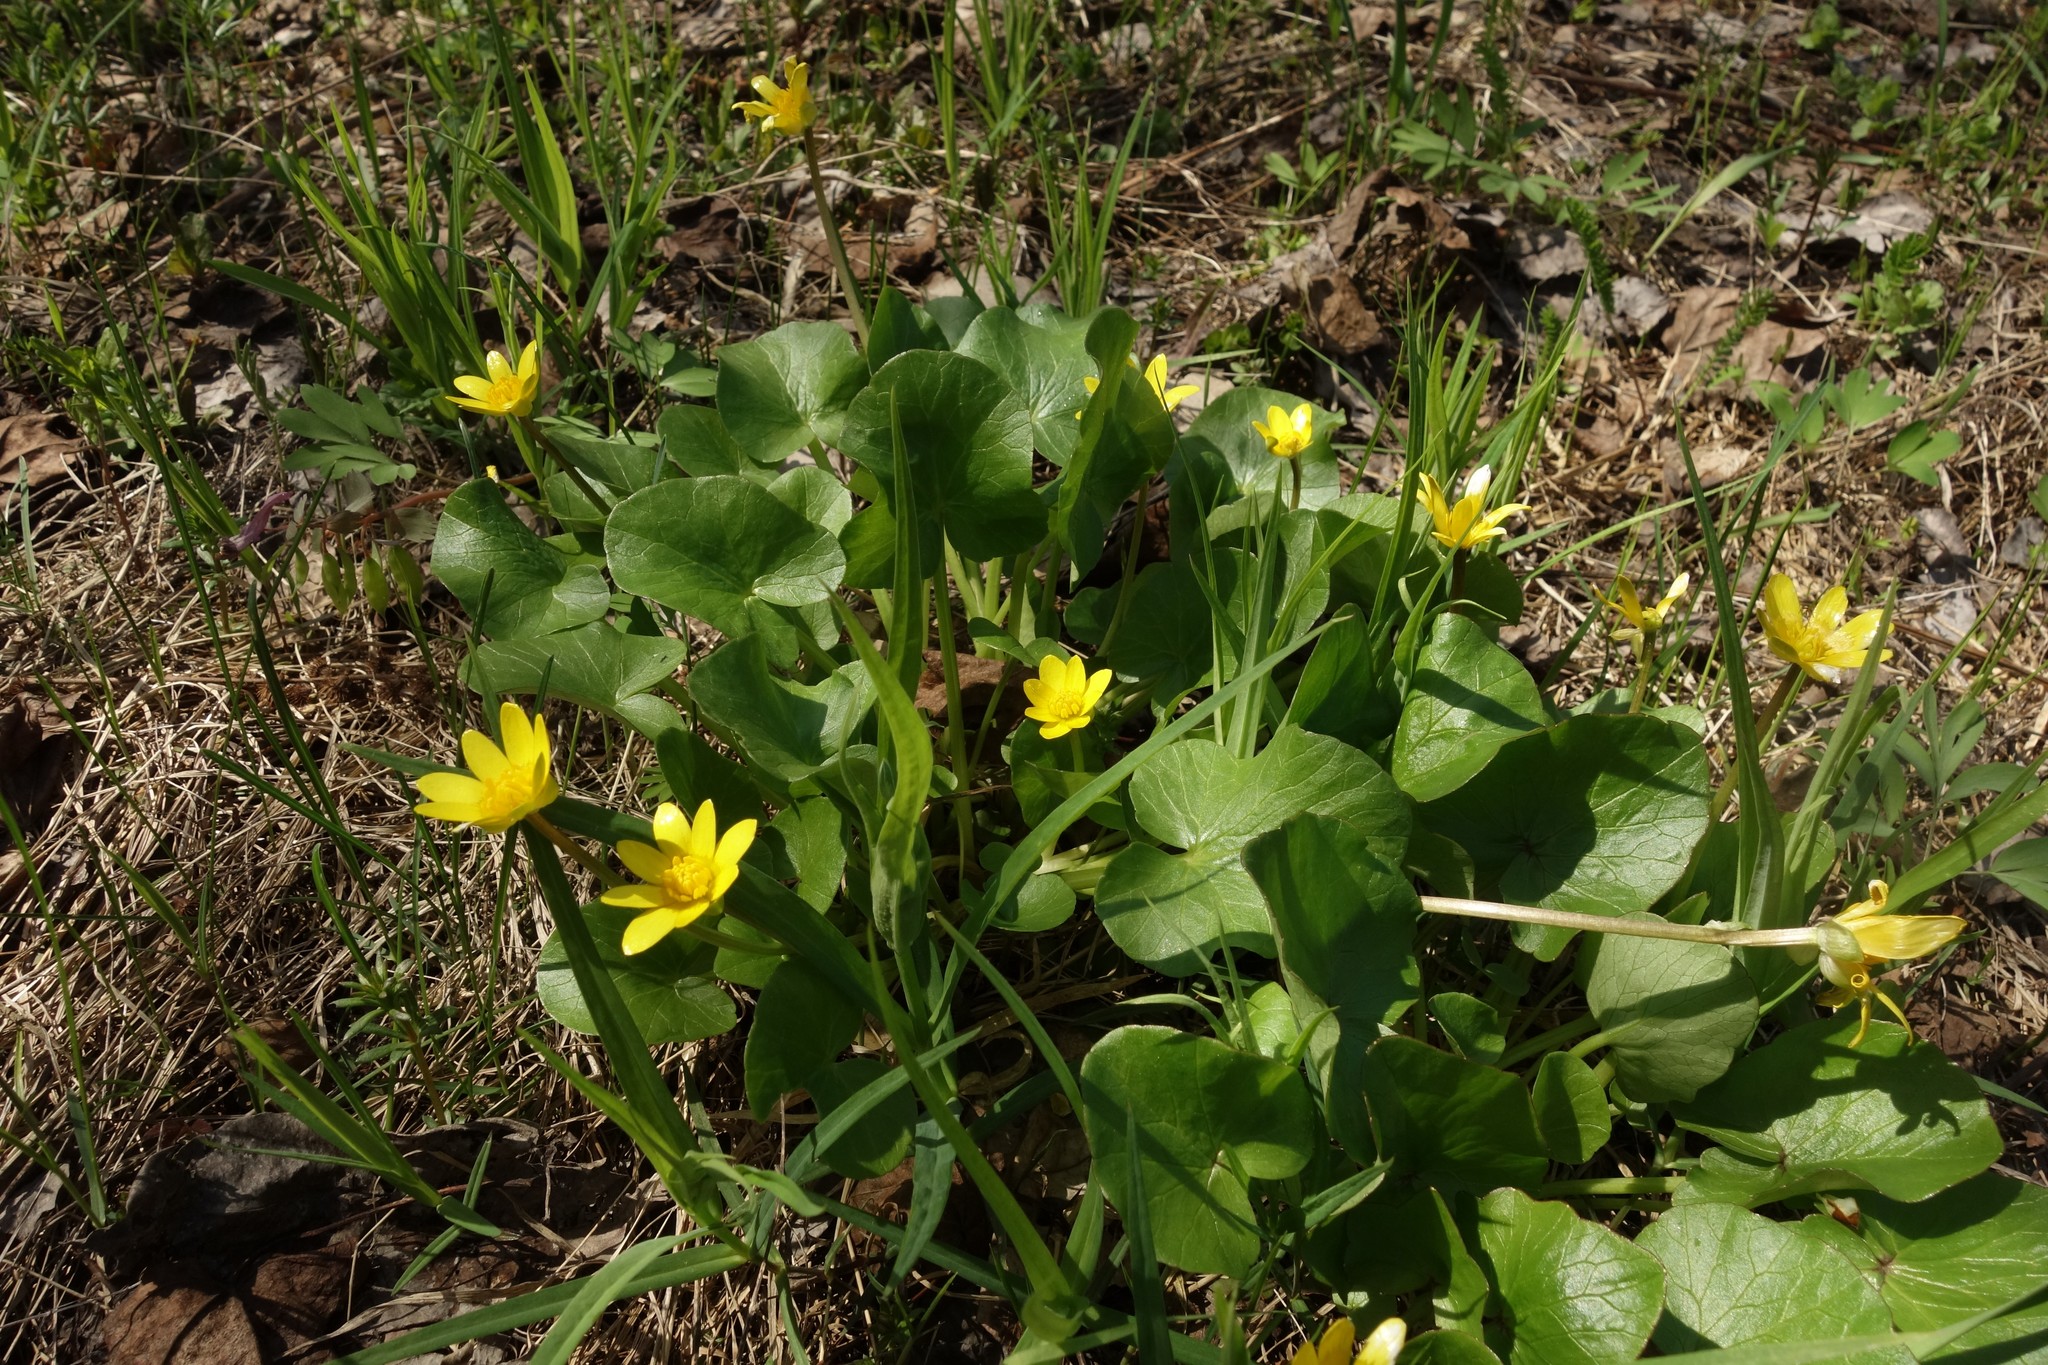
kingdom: Plantae
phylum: Tracheophyta
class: Magnoliopsida
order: Ranunculales
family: Ranunculaceae
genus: Ficaria
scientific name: Ficaria verna
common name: Lesser celandine
